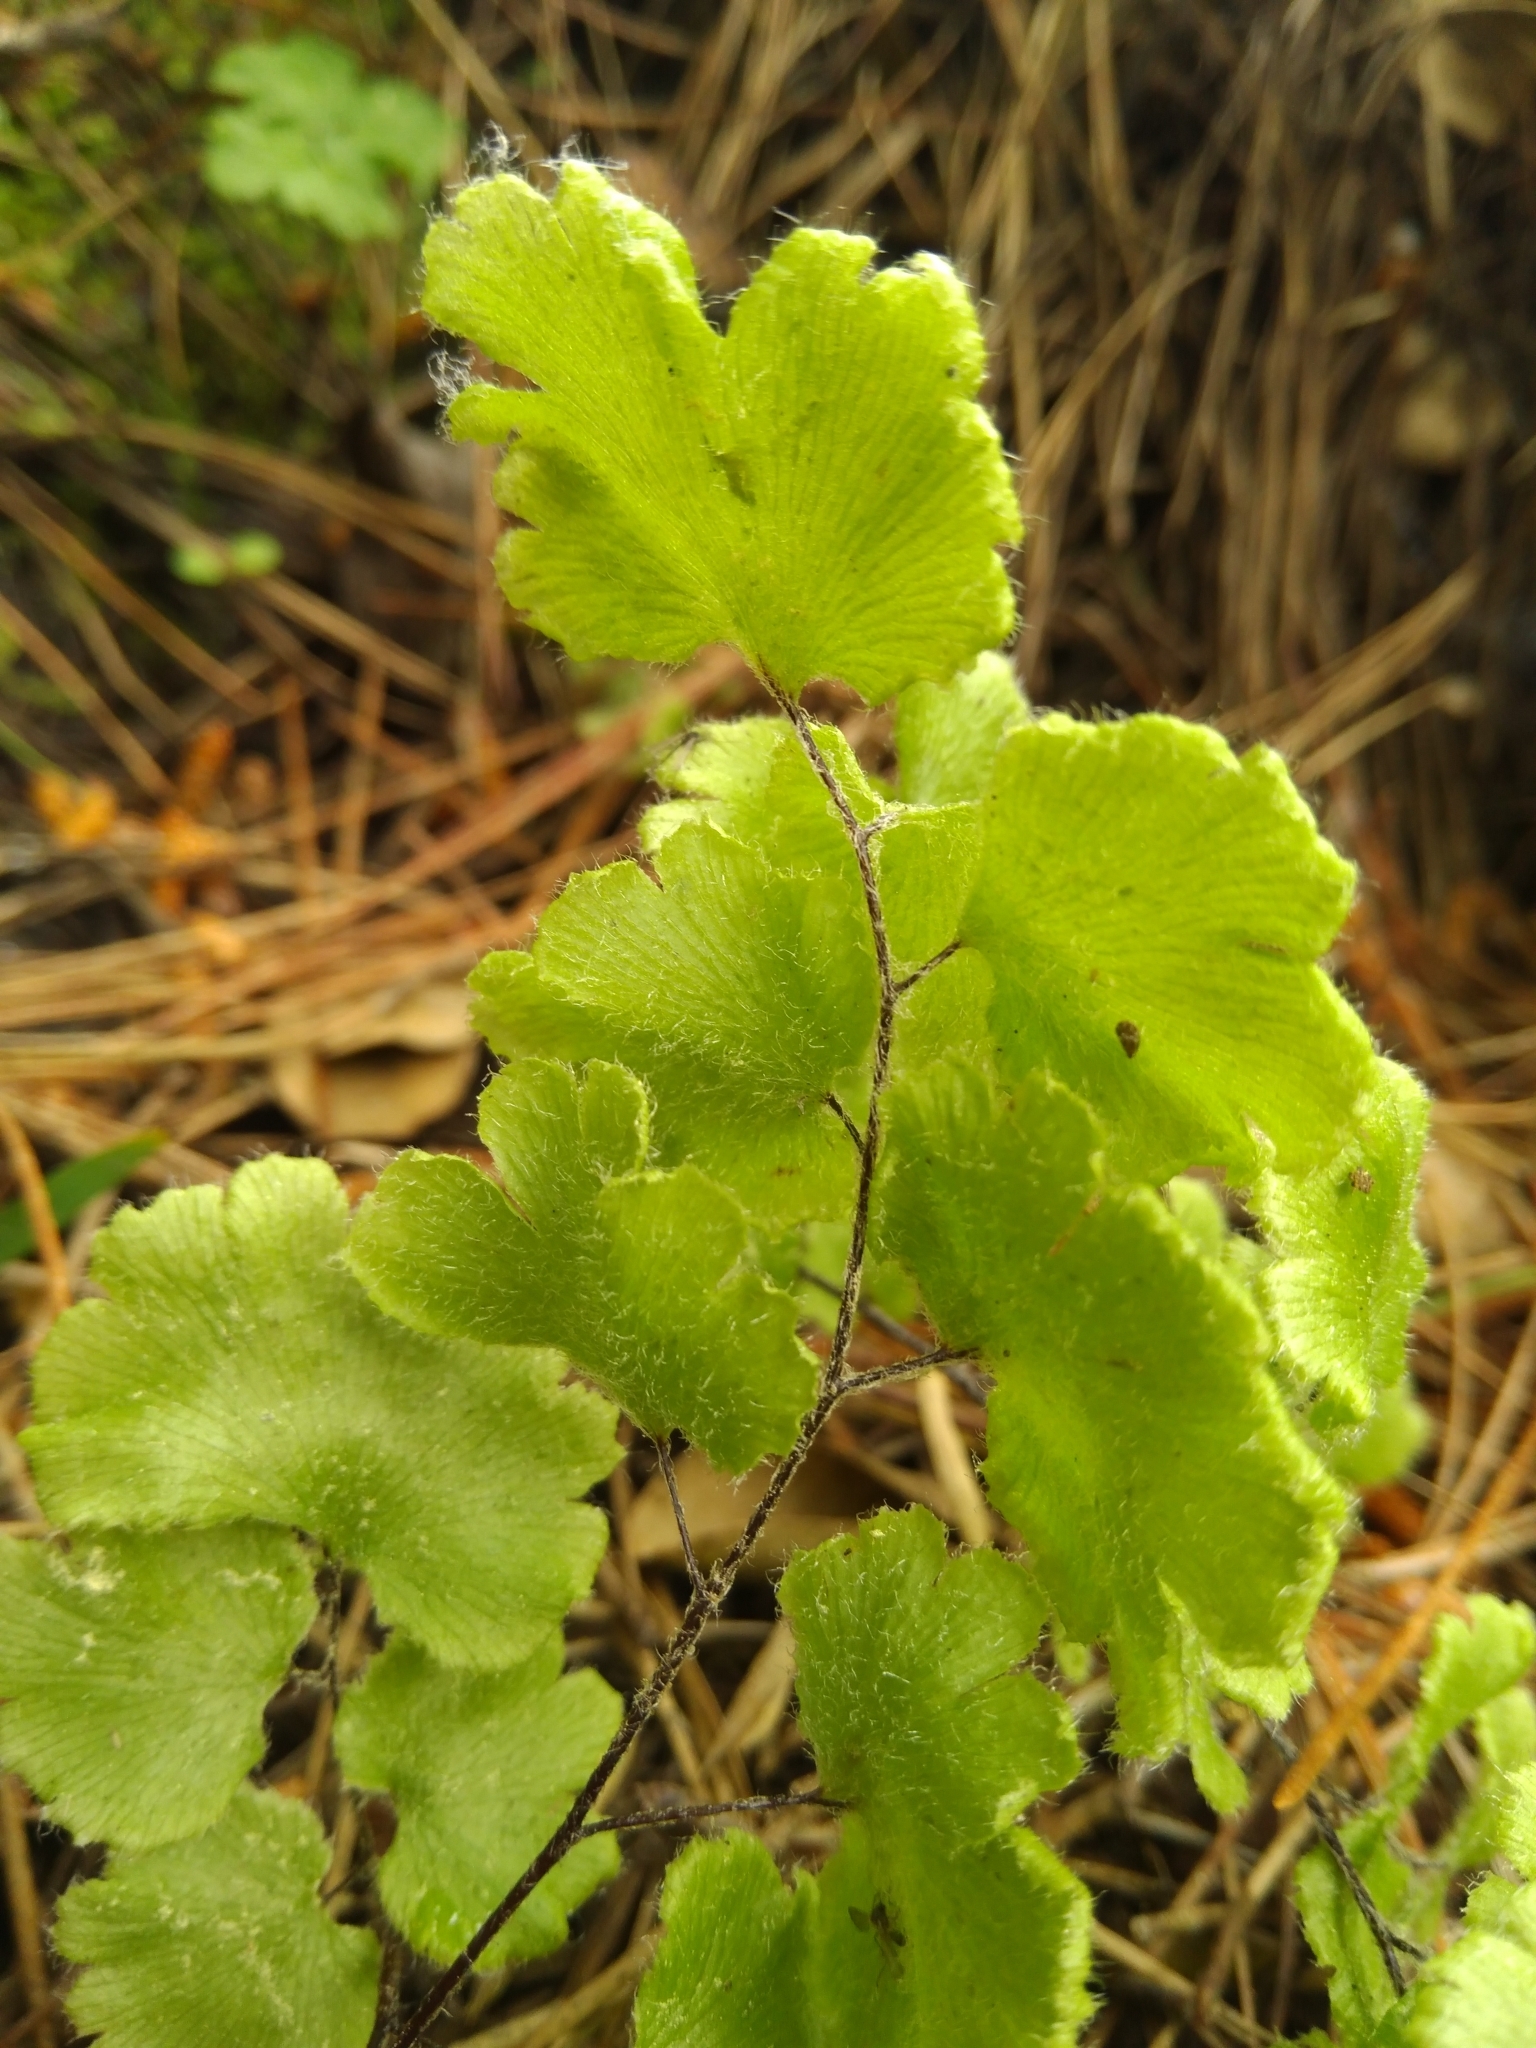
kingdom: Plantae
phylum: Tracheophyta
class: Polypodiopsida
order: Polypodiales
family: Pteridaceae
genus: Adiantum
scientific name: Adiantum chilense
